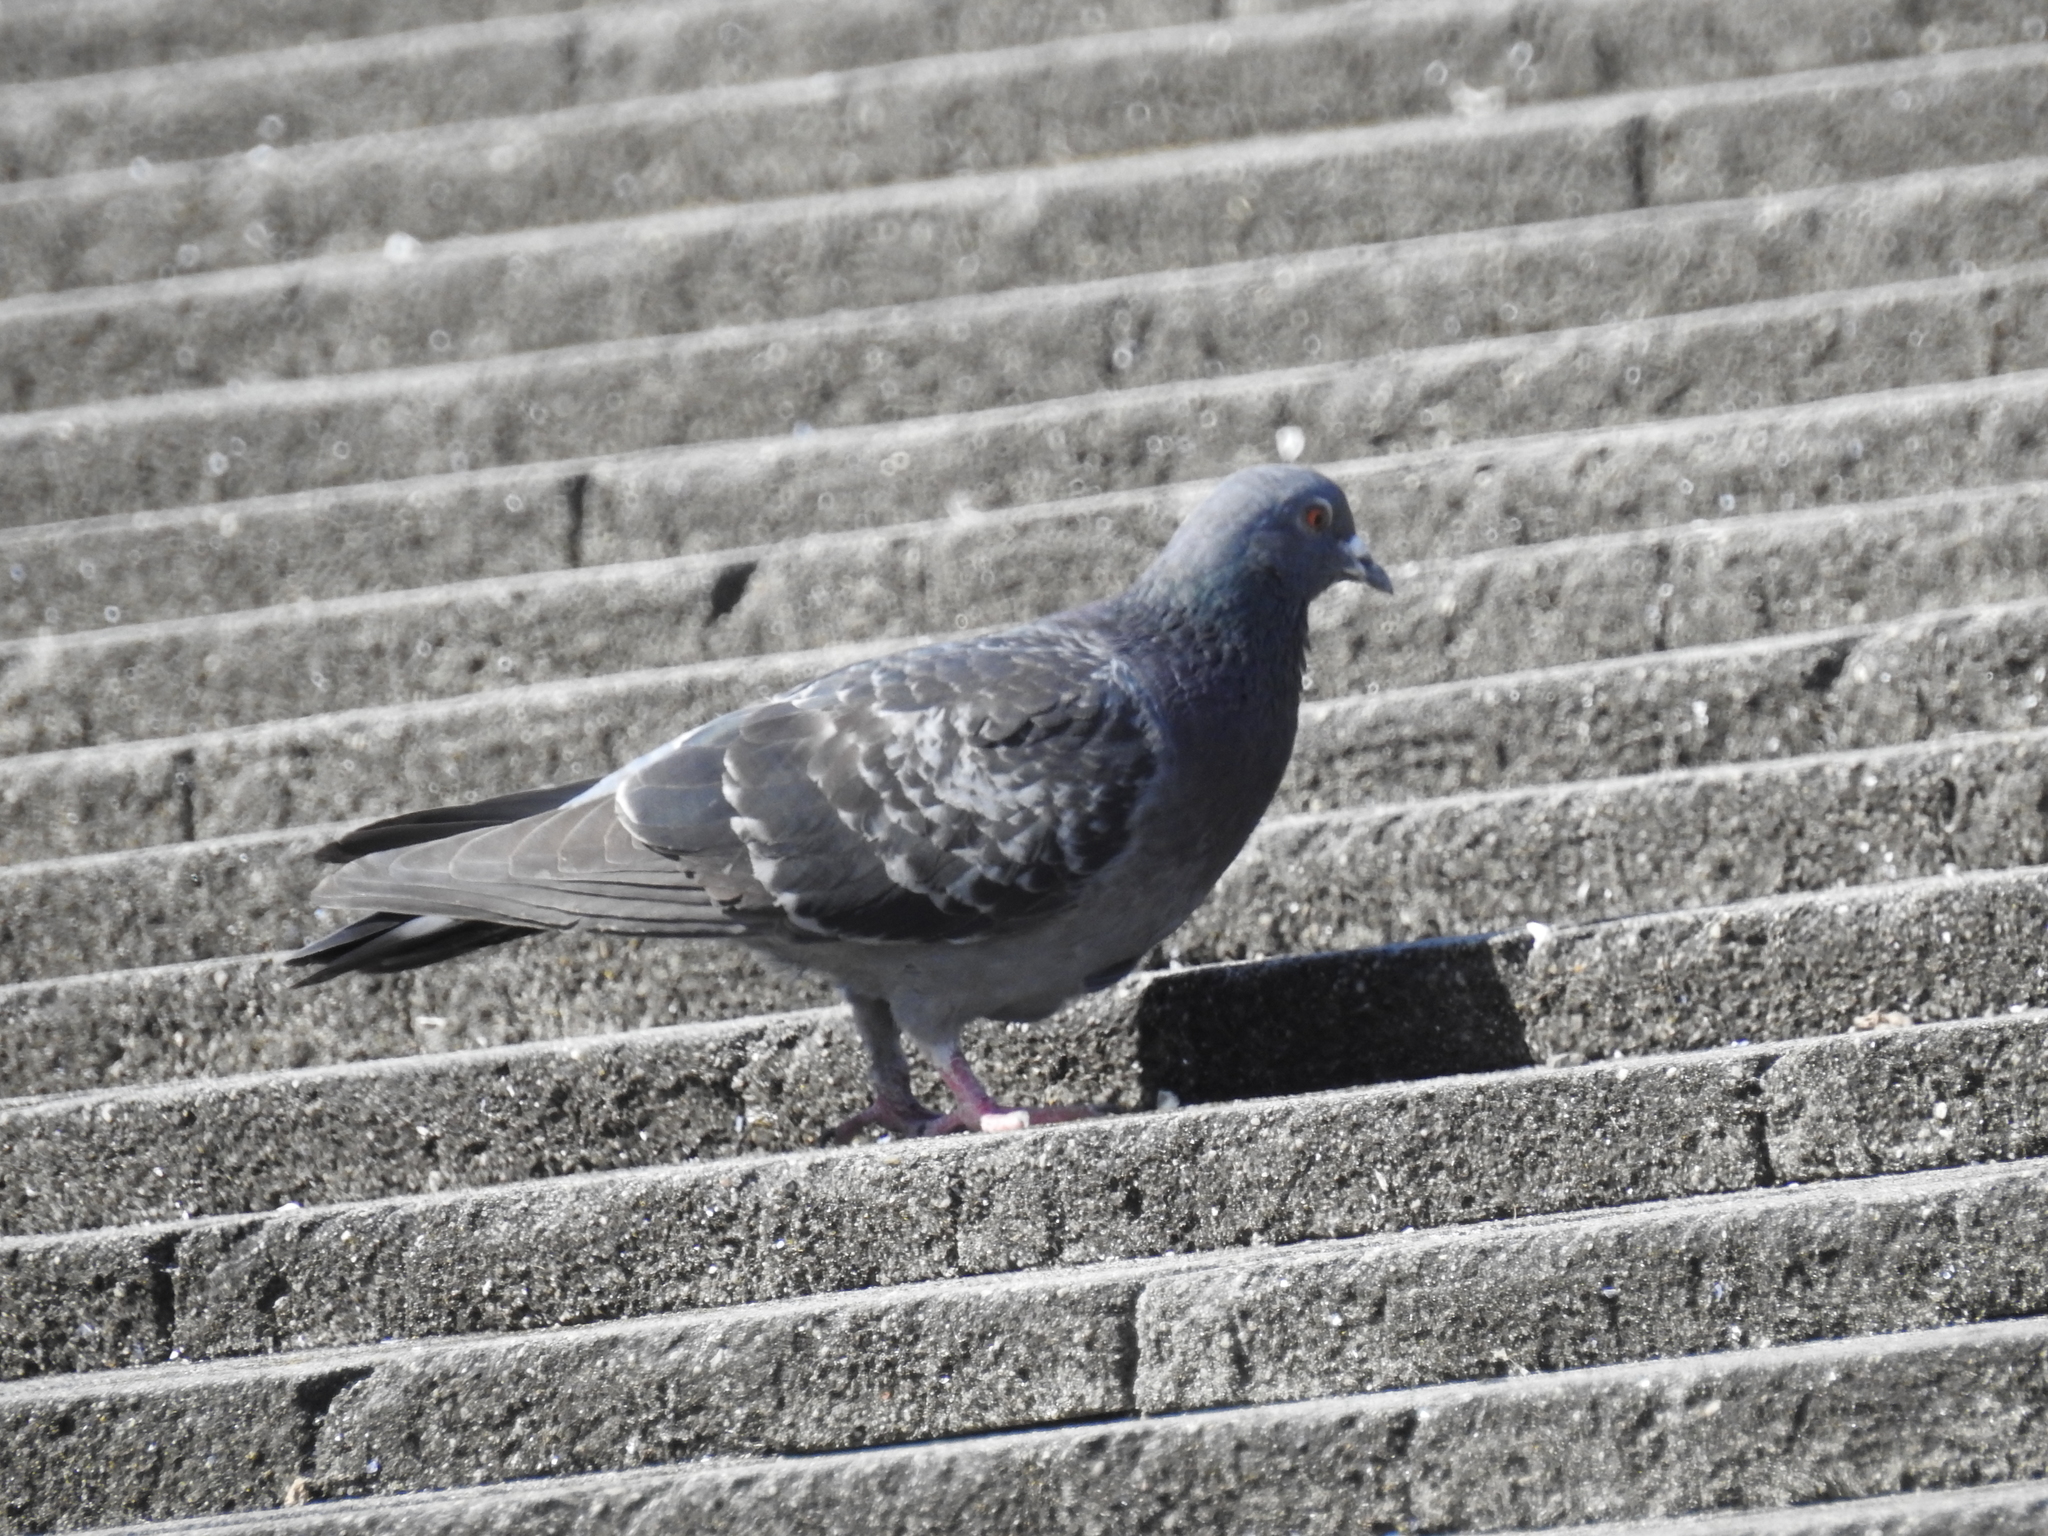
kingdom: Animalia
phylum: Chordata
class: Aves
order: Columbiformes
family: Columbidae
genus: Columba
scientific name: Columba livia
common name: Rock pigeon
